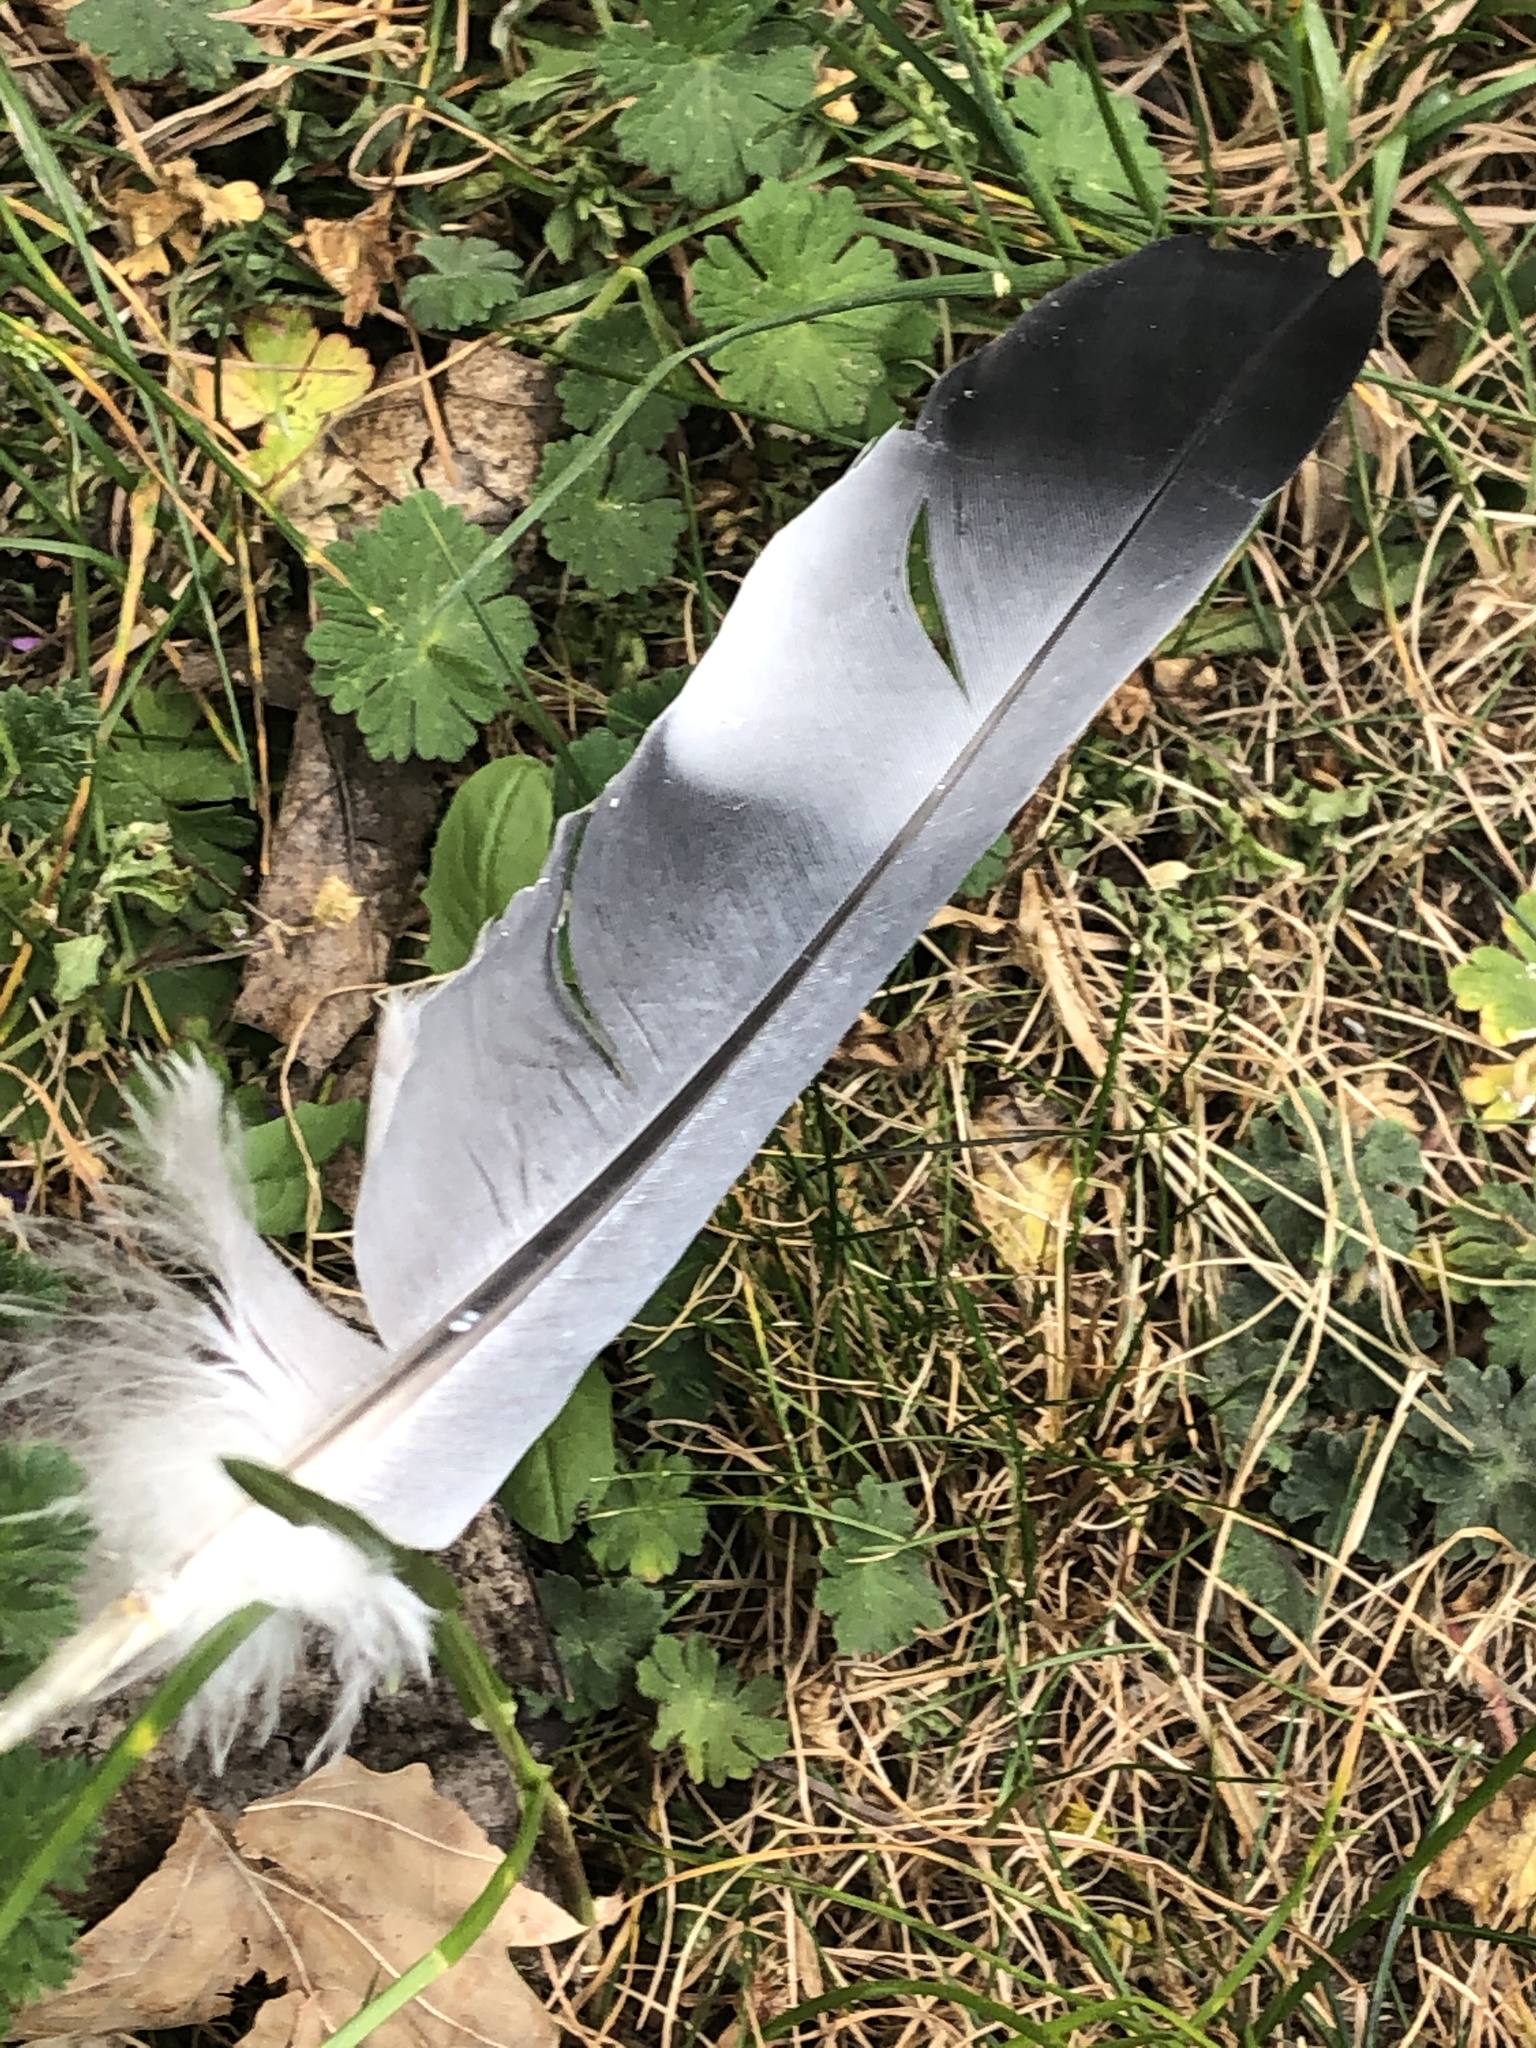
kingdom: Animalia
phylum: Chordata
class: Aves
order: Columbiformes
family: Columbidae
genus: Columba
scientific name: Columba palumbus
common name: Common wood pigeon
